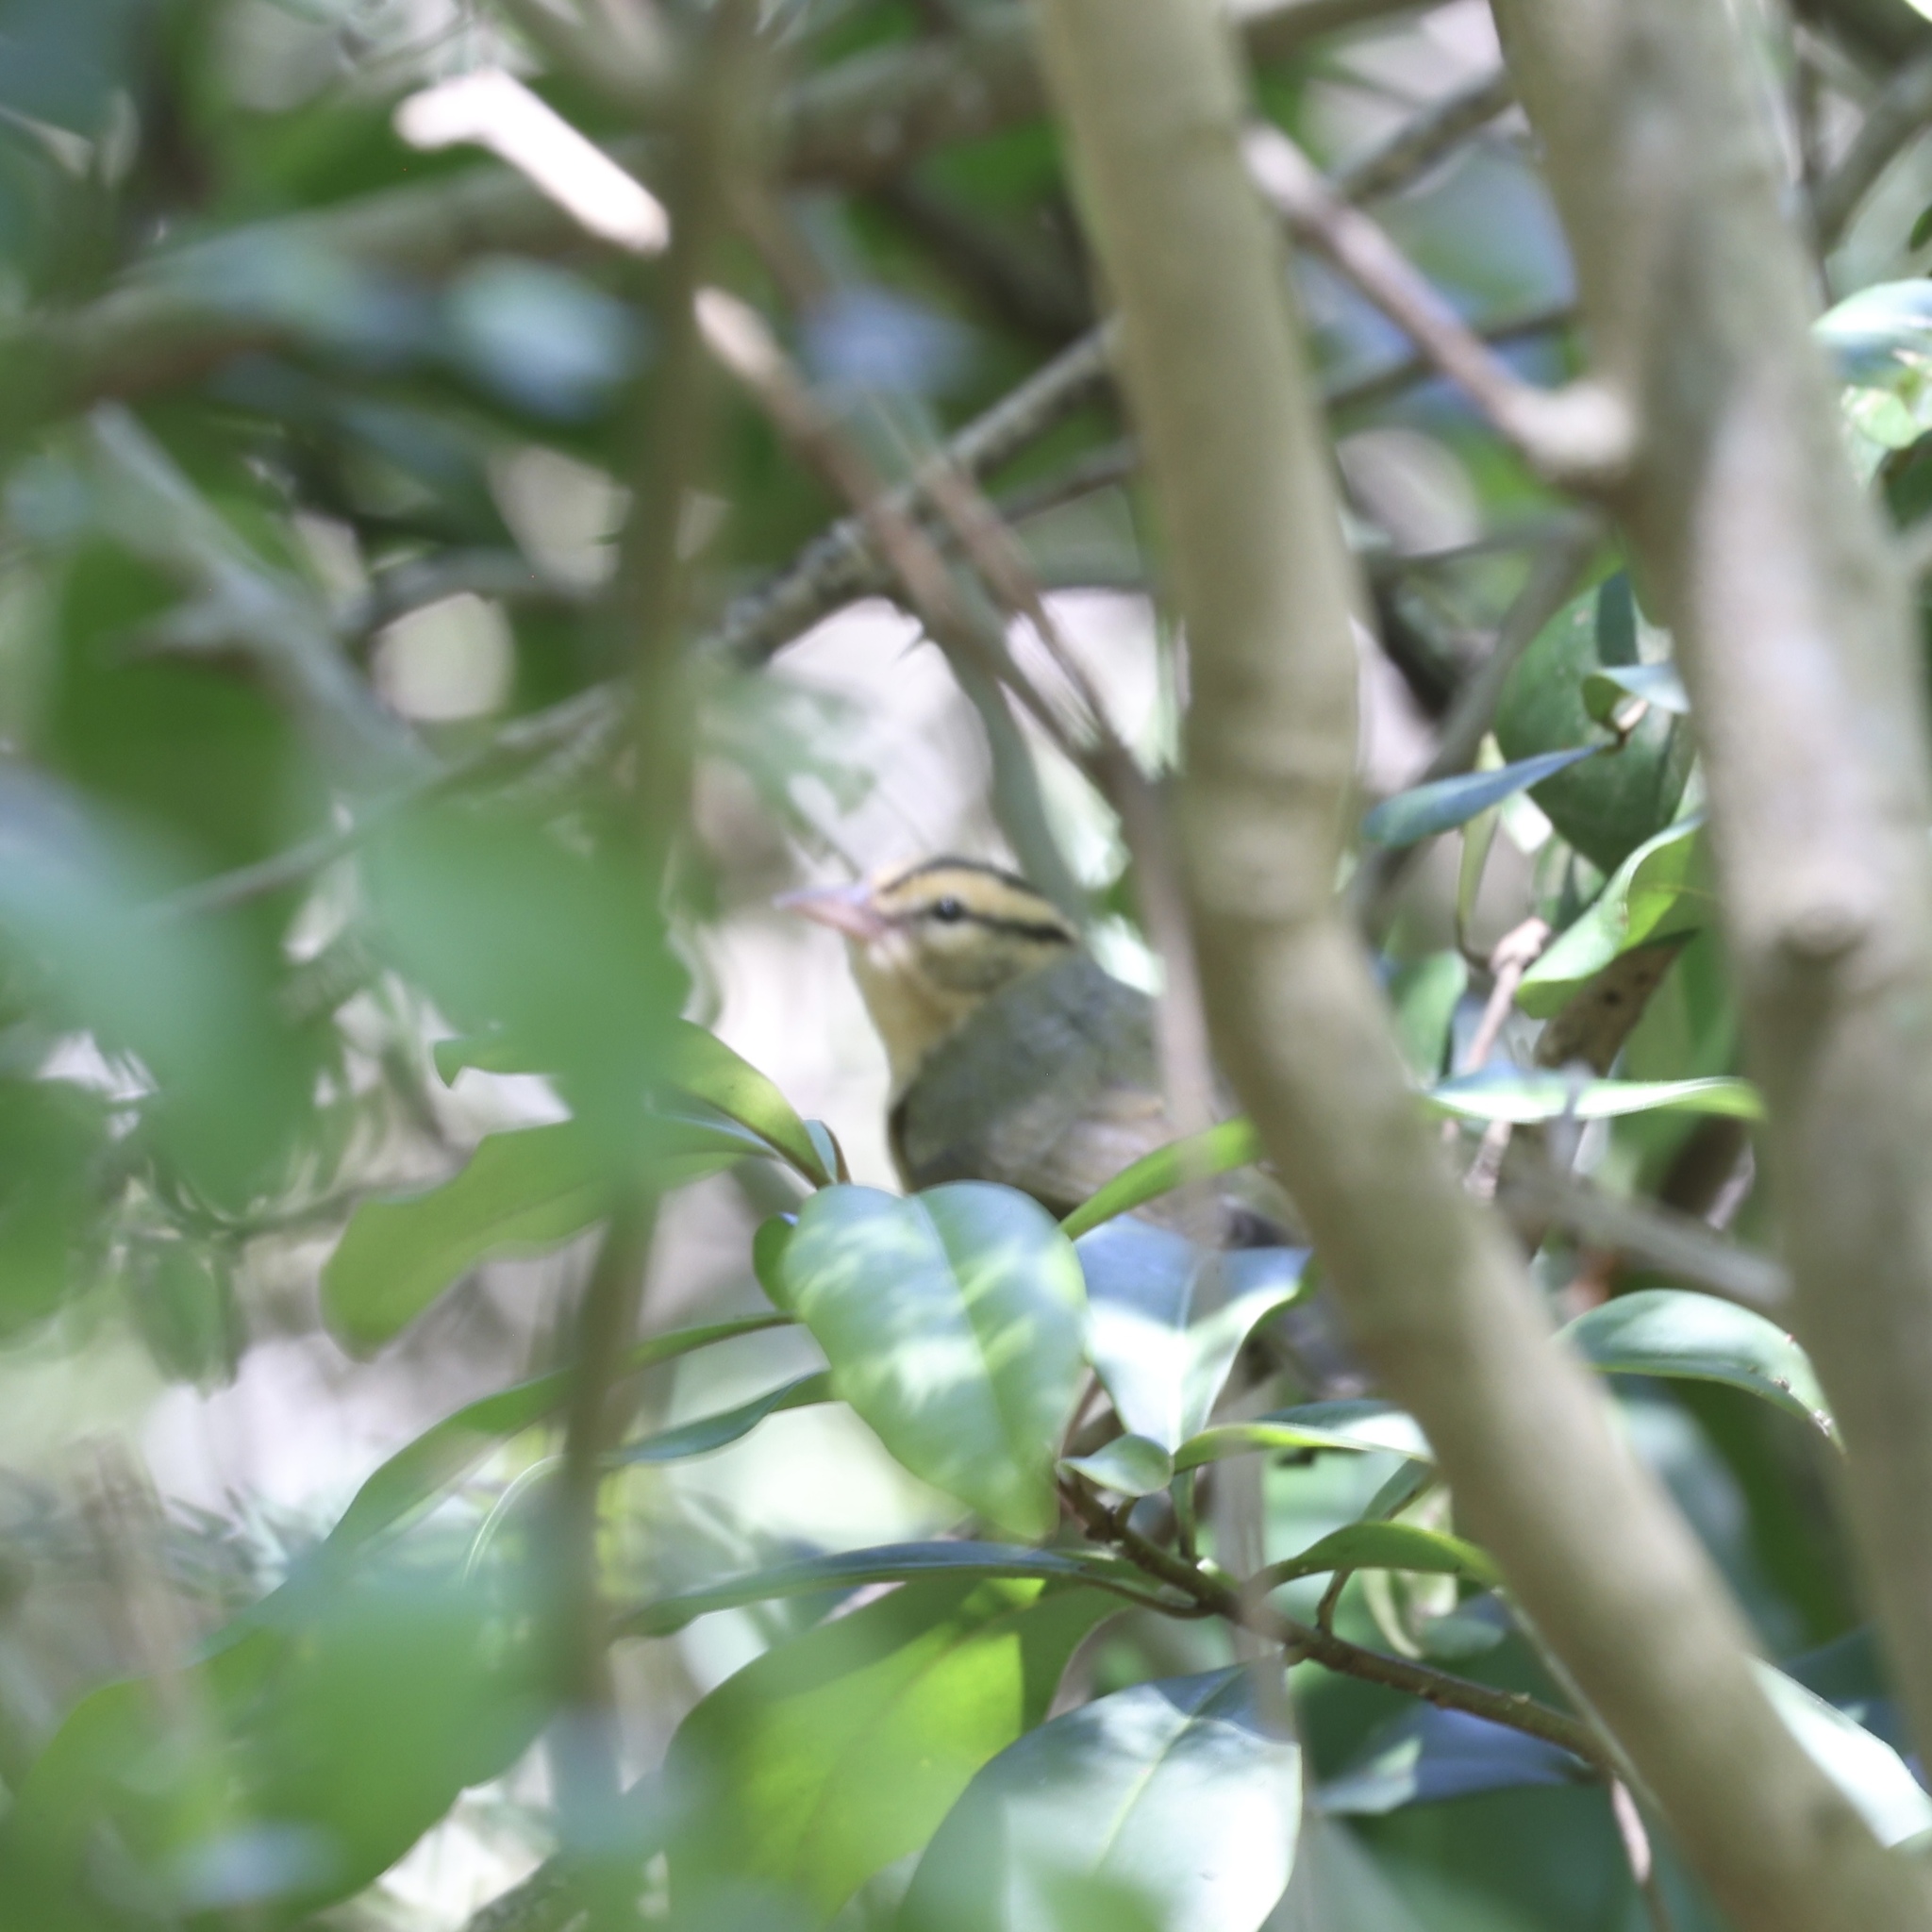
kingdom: Animalia
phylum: Chordata
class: Aves
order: Passeriformes
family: Parulidae
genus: Helmitheros
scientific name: Helmitheros vermivorum
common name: Worm-eating warbler
